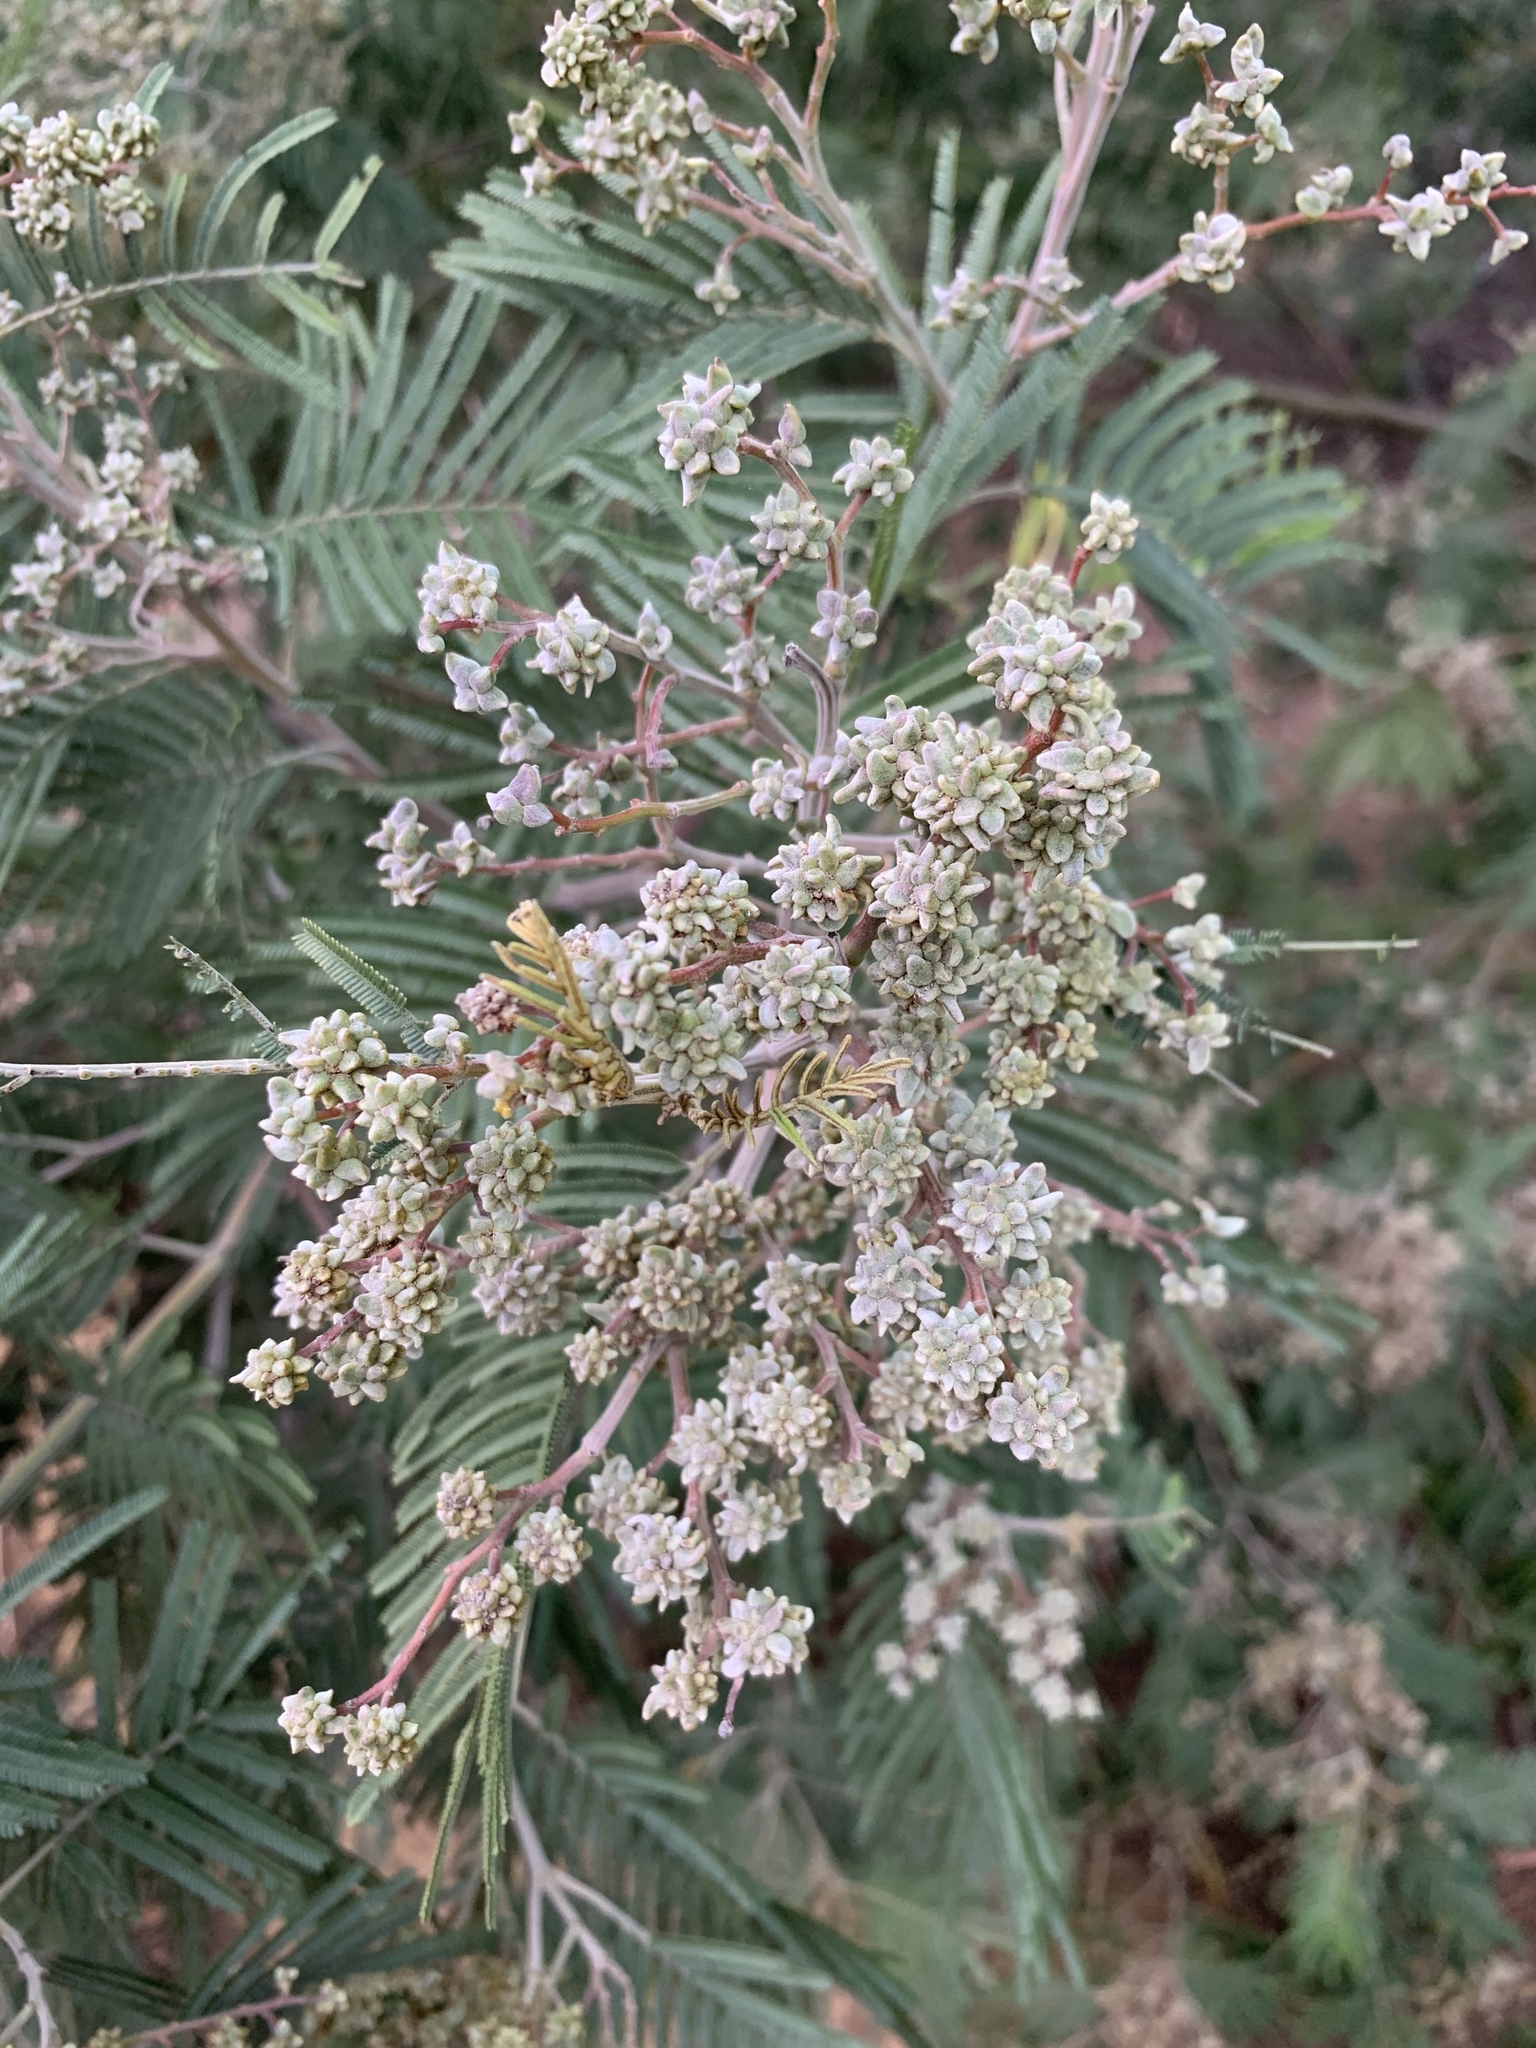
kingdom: Animalia
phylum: Arthropoda
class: Insecta
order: Diptera
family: Cecidomyiidae
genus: Dasineura
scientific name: Dasineura rubiformis
